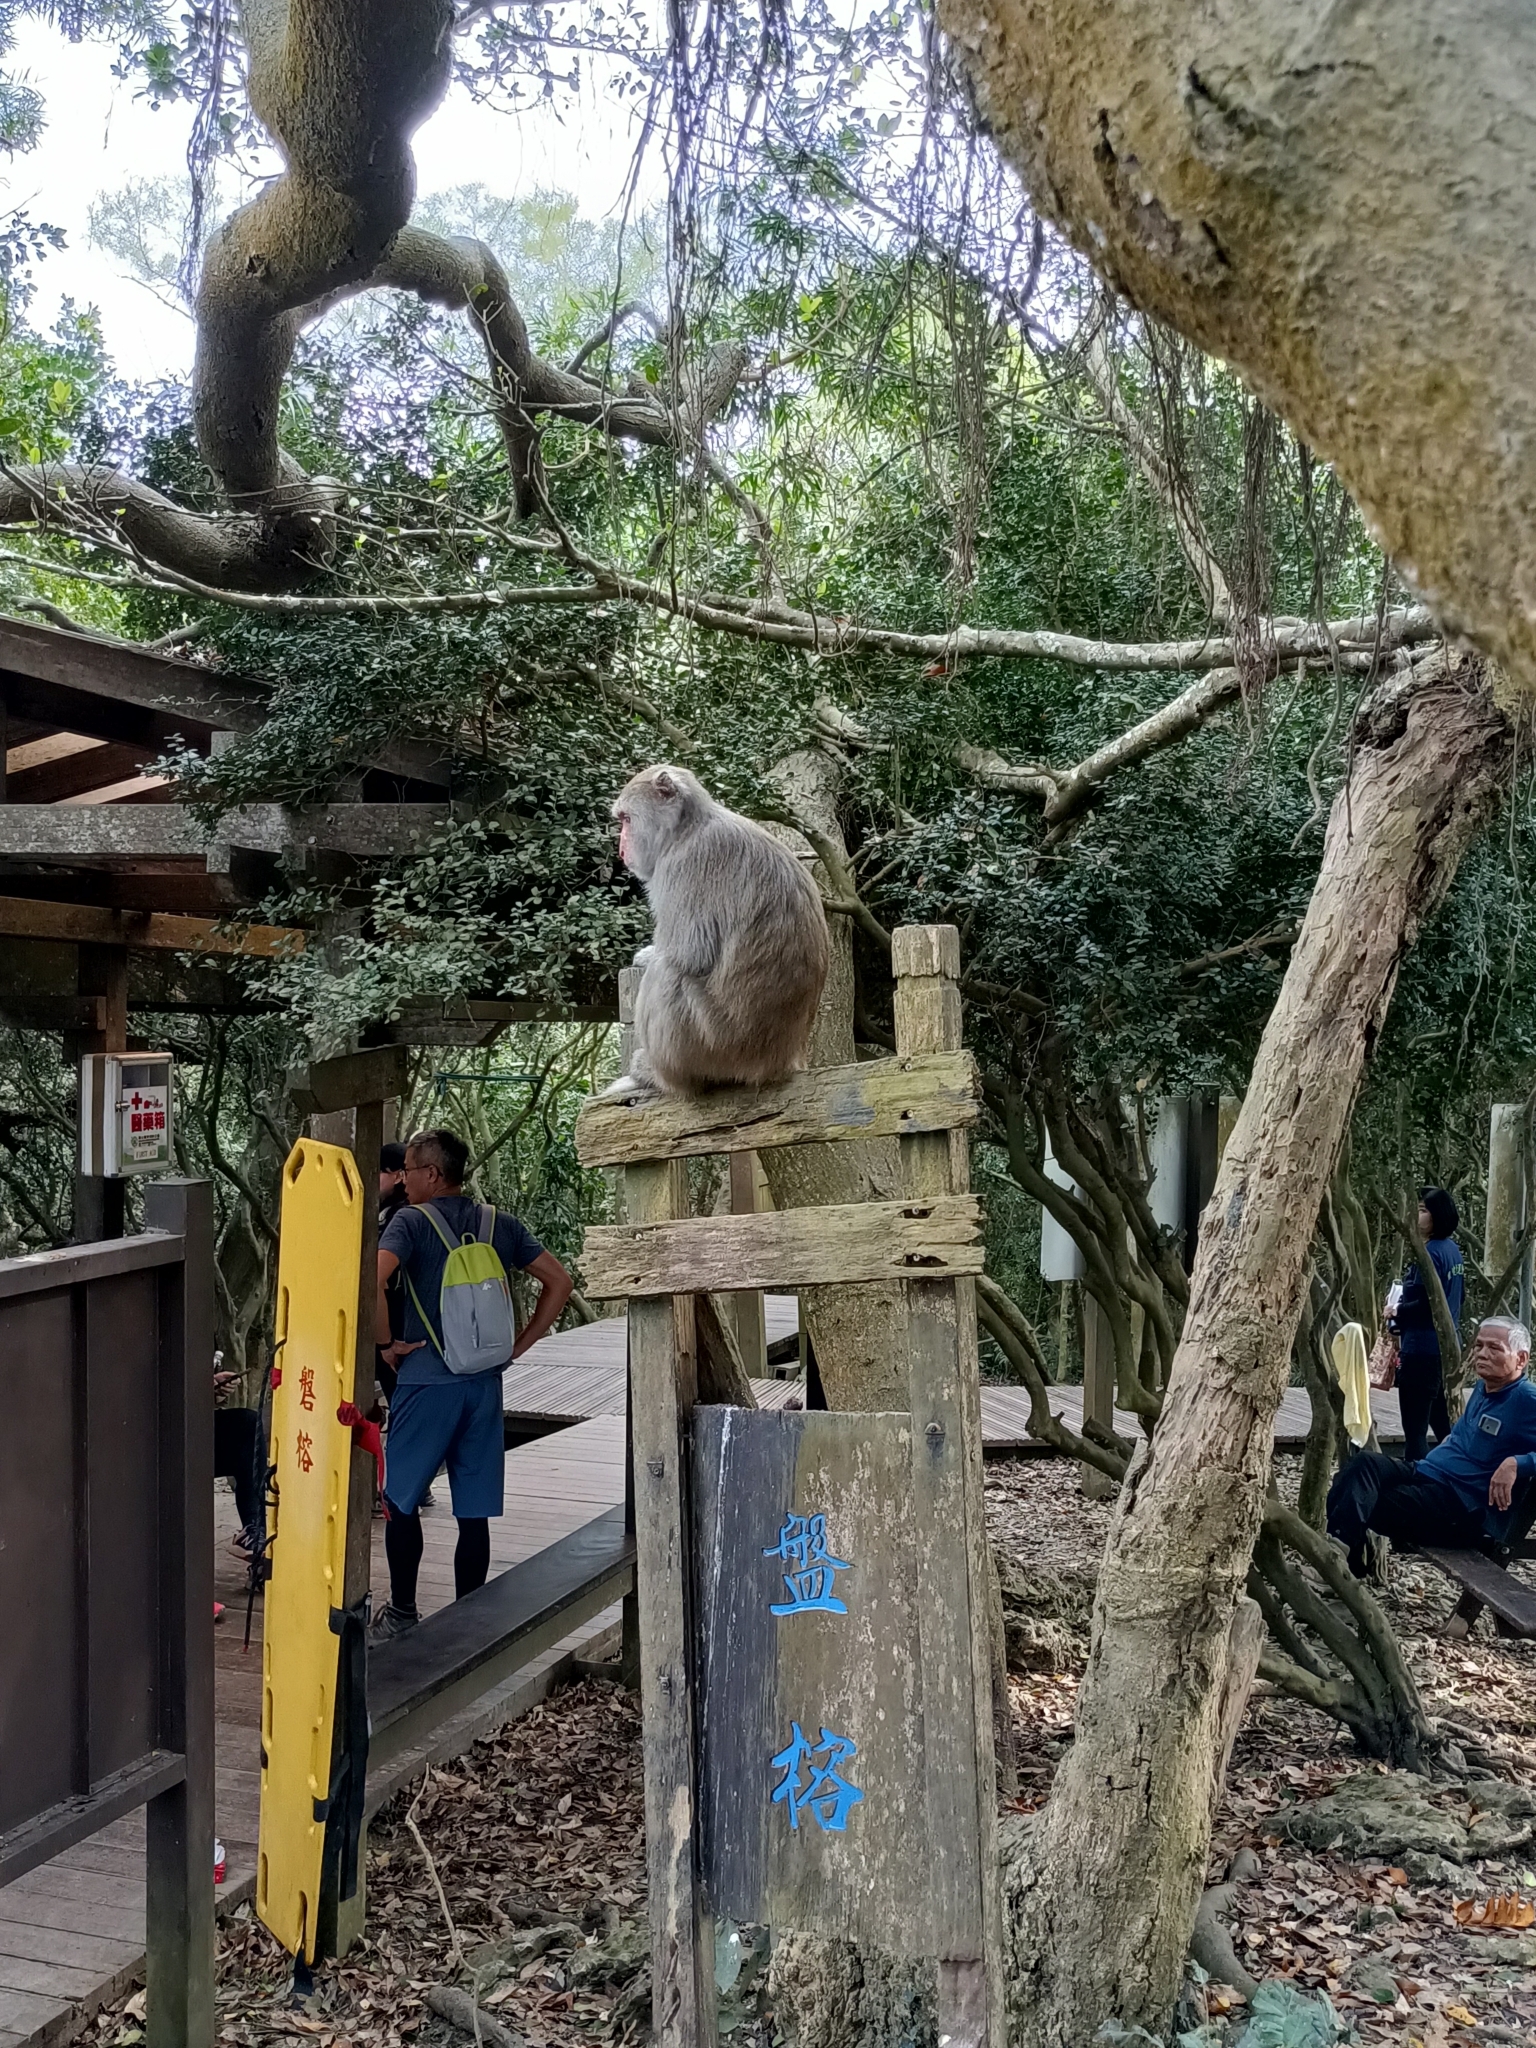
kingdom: Animalia
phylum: Chordata
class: Mammalia
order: Primates
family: Cercopithecidae
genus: Macaca
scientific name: Macaca cyclopis
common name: Formosan rock macaque
